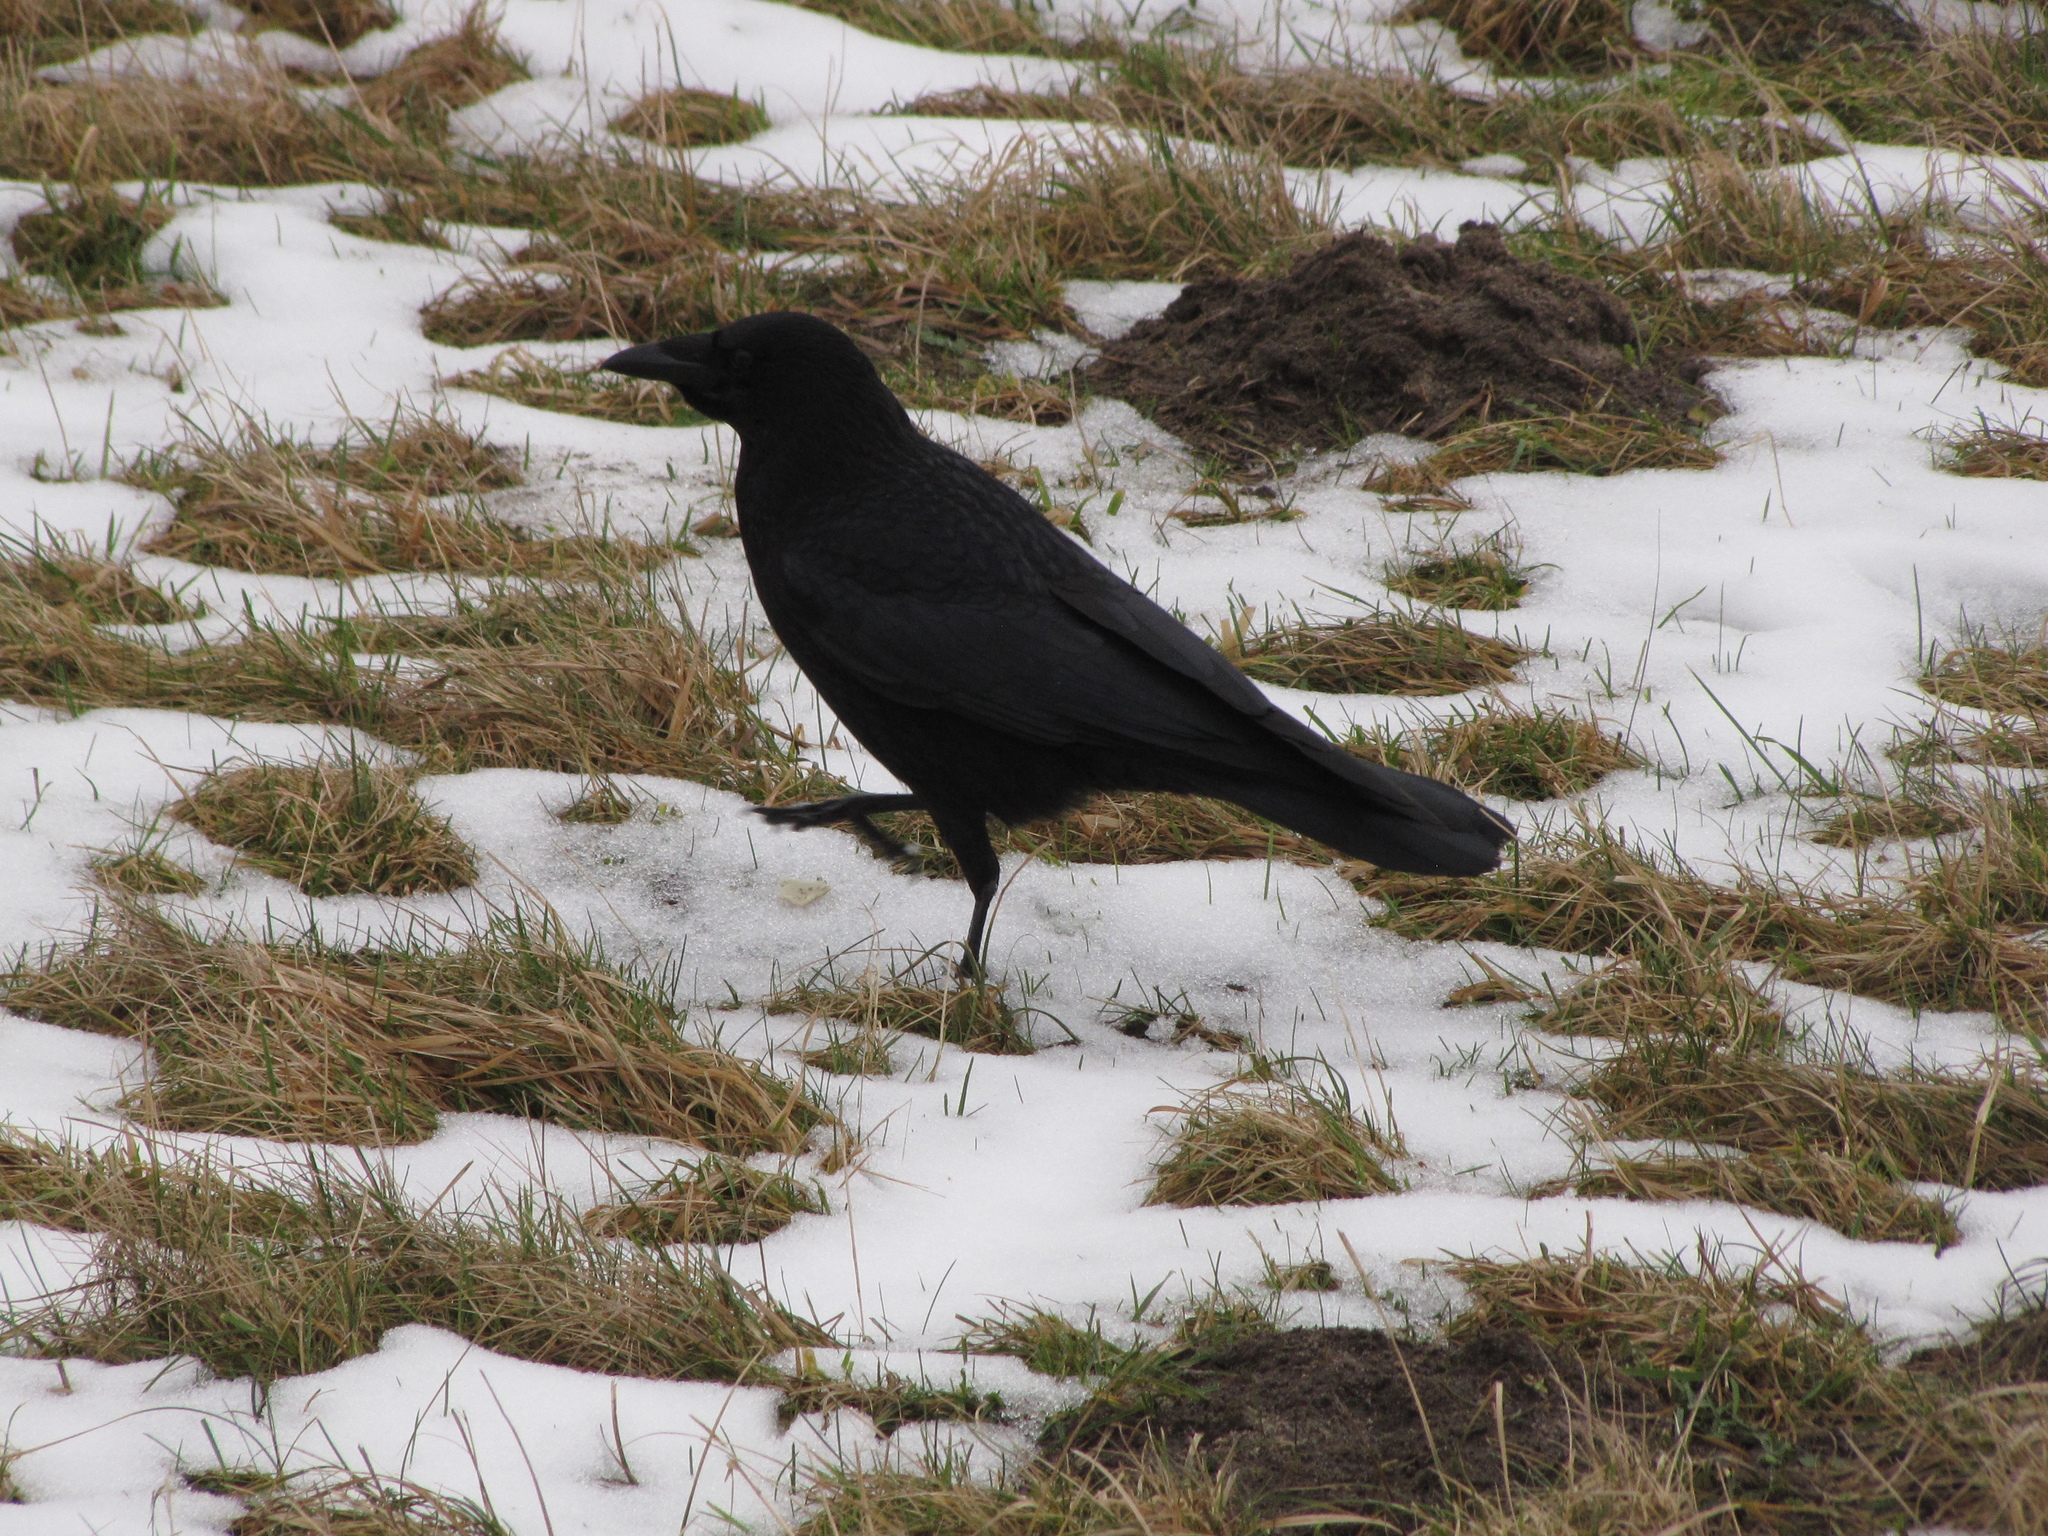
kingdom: Animalia
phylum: Chordata
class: Aves
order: Passeriformes
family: Corvidae
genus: Corvus
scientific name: Corvus corone
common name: Carrion crow
